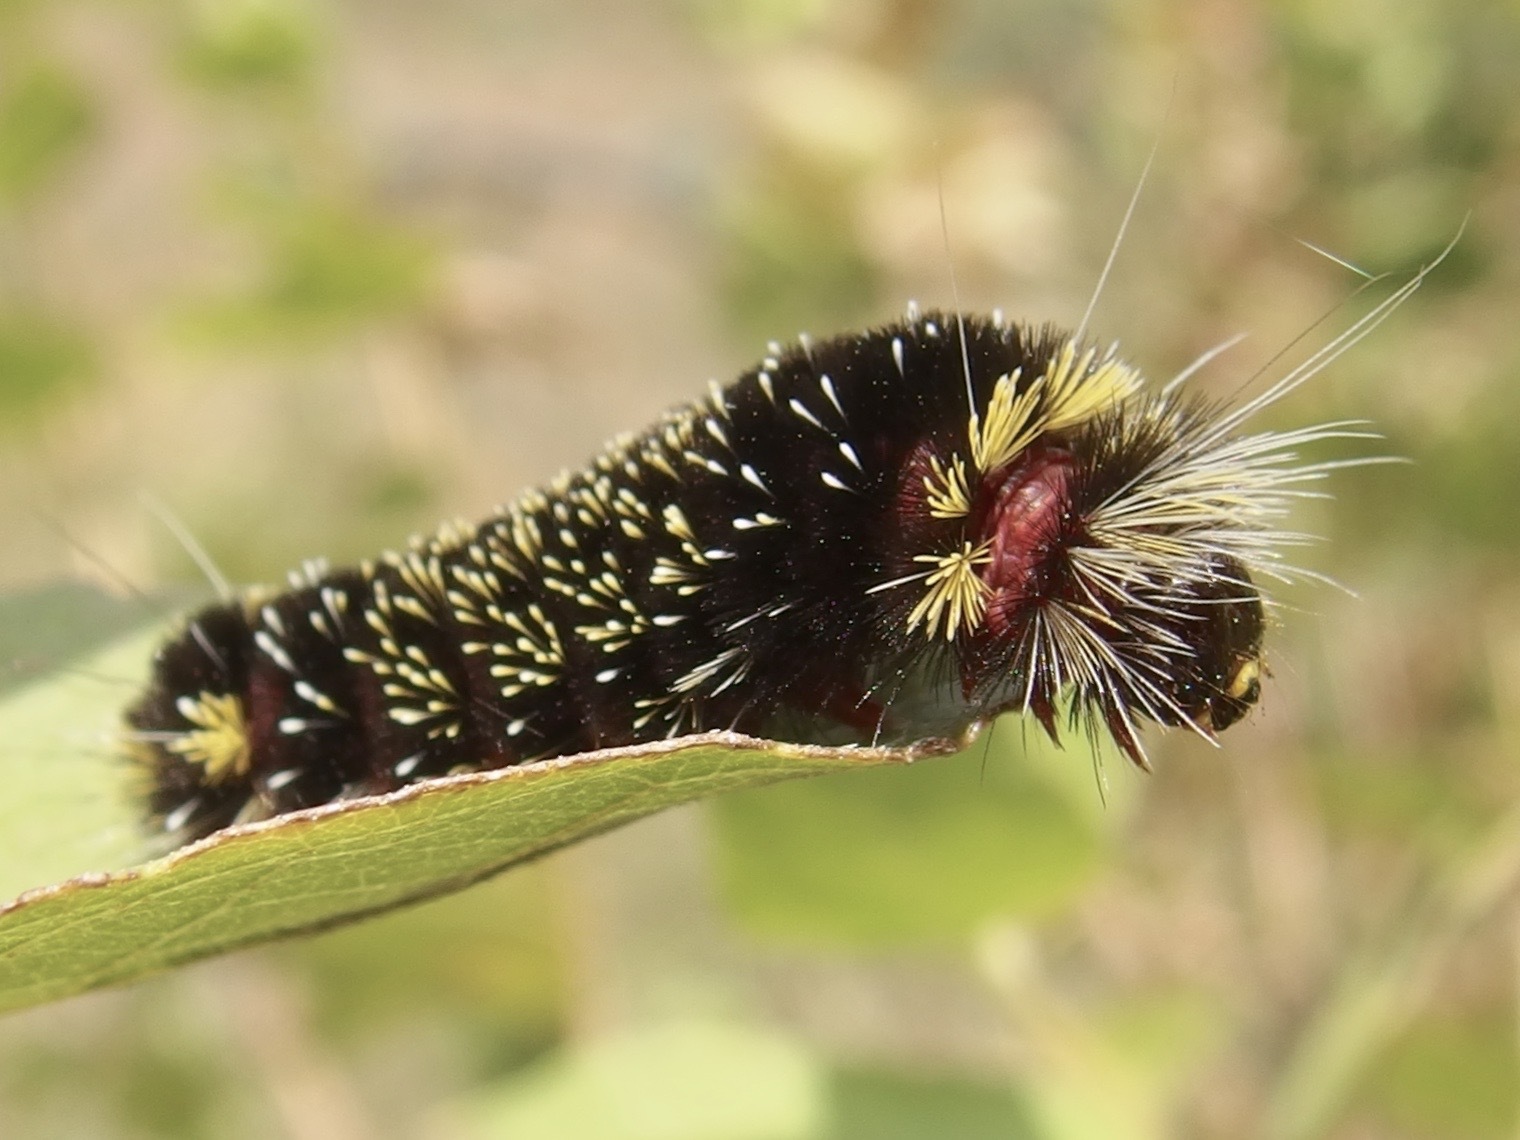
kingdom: Animalia
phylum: Arthropoda
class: Insecta
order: Lepidoptera
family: Erebidae
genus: Hypocrisias
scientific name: Hypocrisias minima
